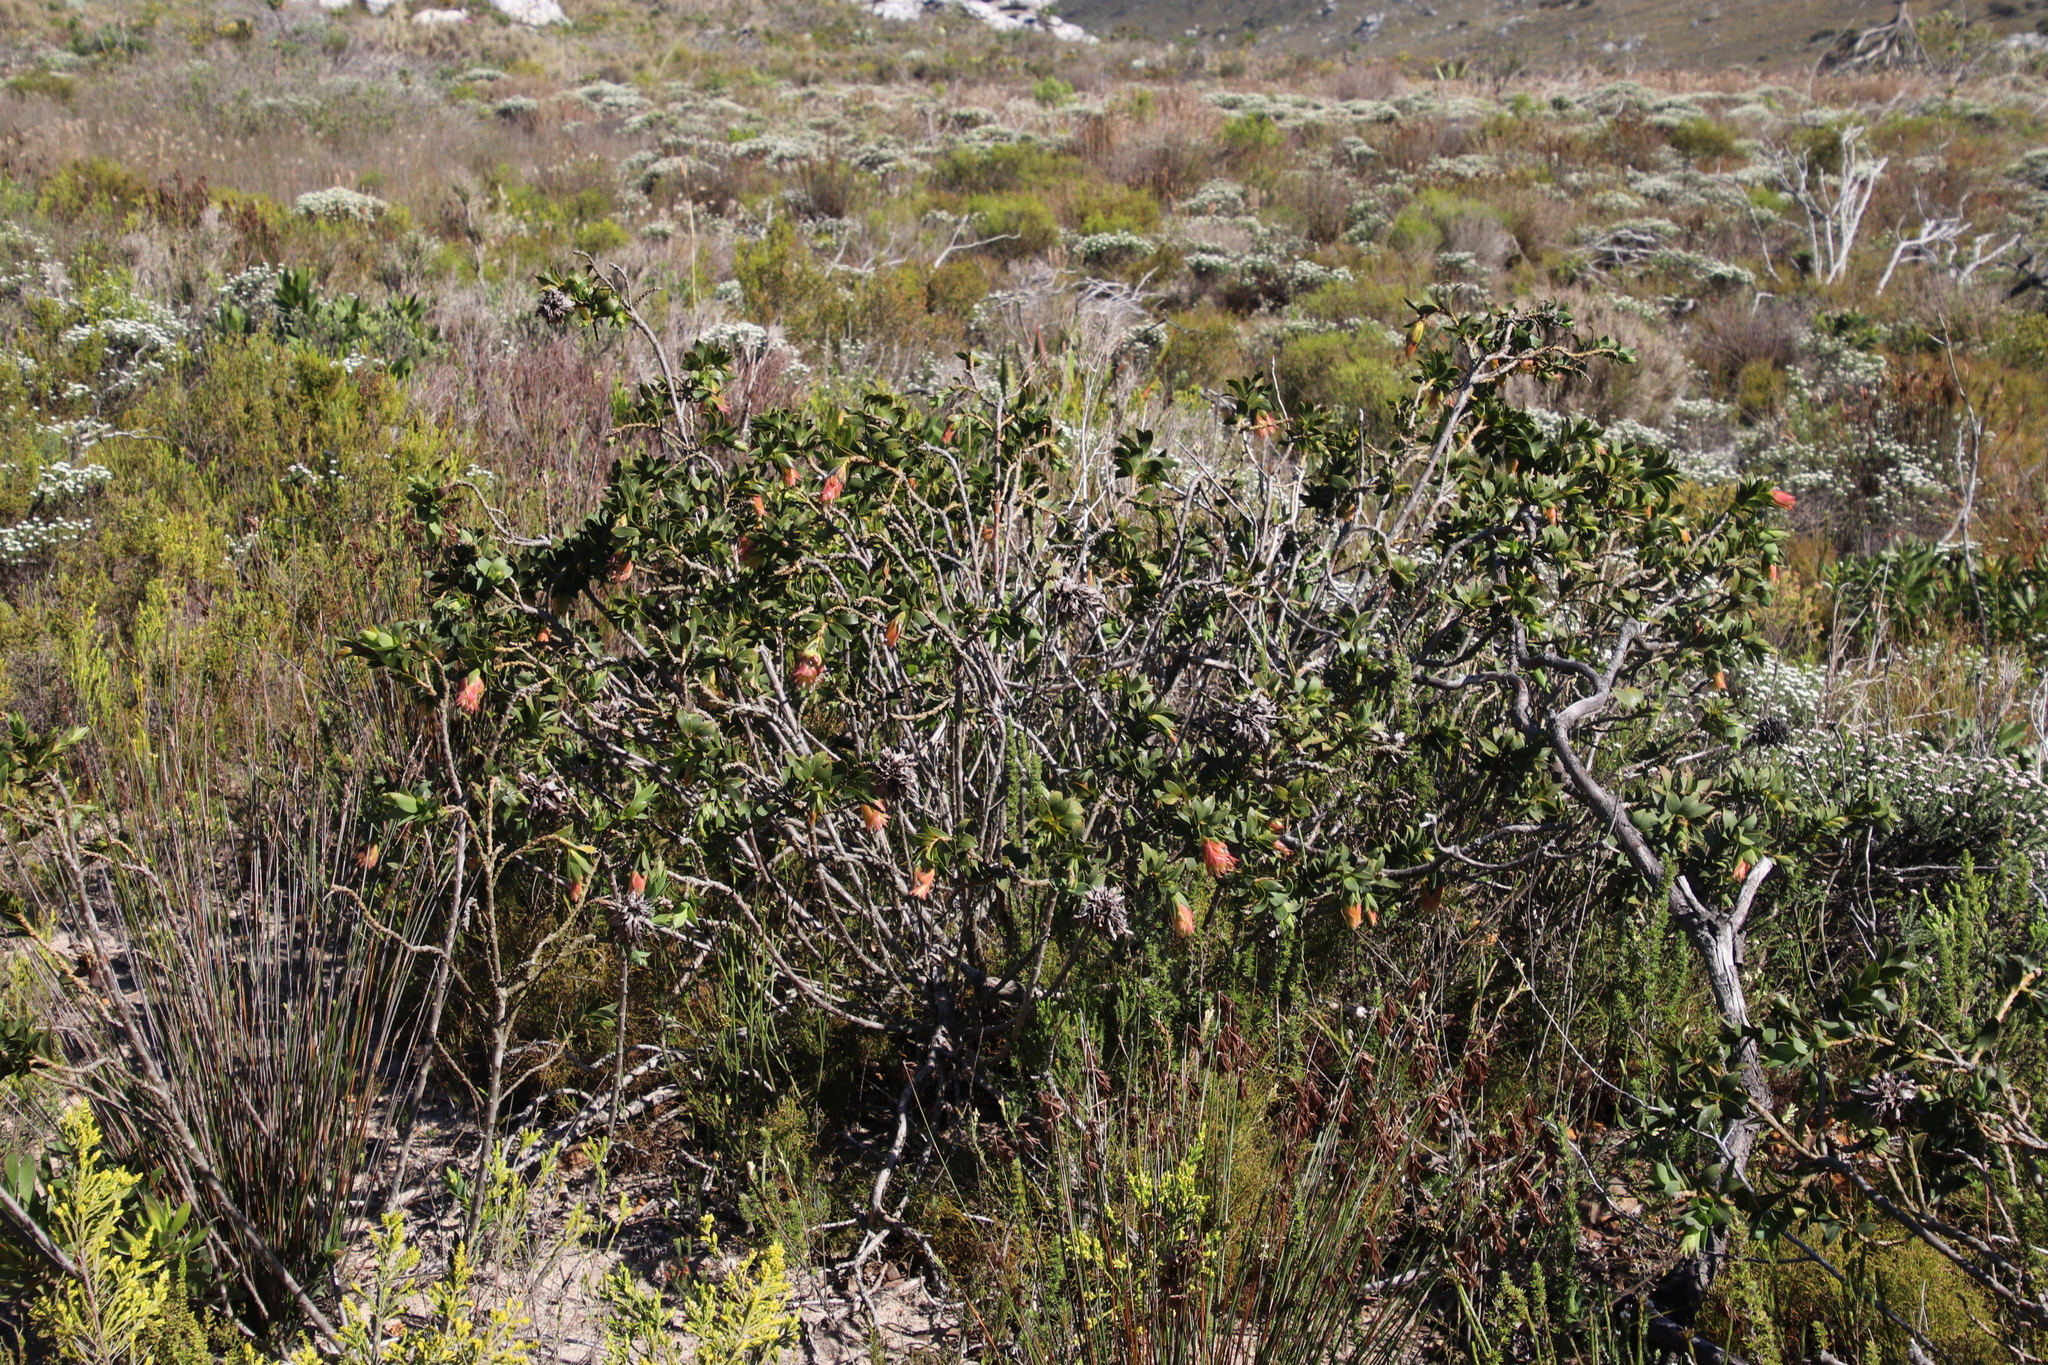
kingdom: Plantae
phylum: Tracheophyta
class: Magnoliopsida
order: Fabales
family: Fabaceae
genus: Liparia
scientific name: Liparia splendens
